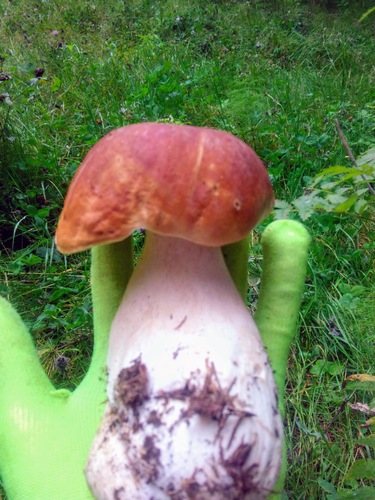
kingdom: Fungi
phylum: Basidiomycota
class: Agaricomycetes
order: Boletales
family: Boletaceae
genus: Boletus
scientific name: Boletus pinophilus
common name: Pine bolete
